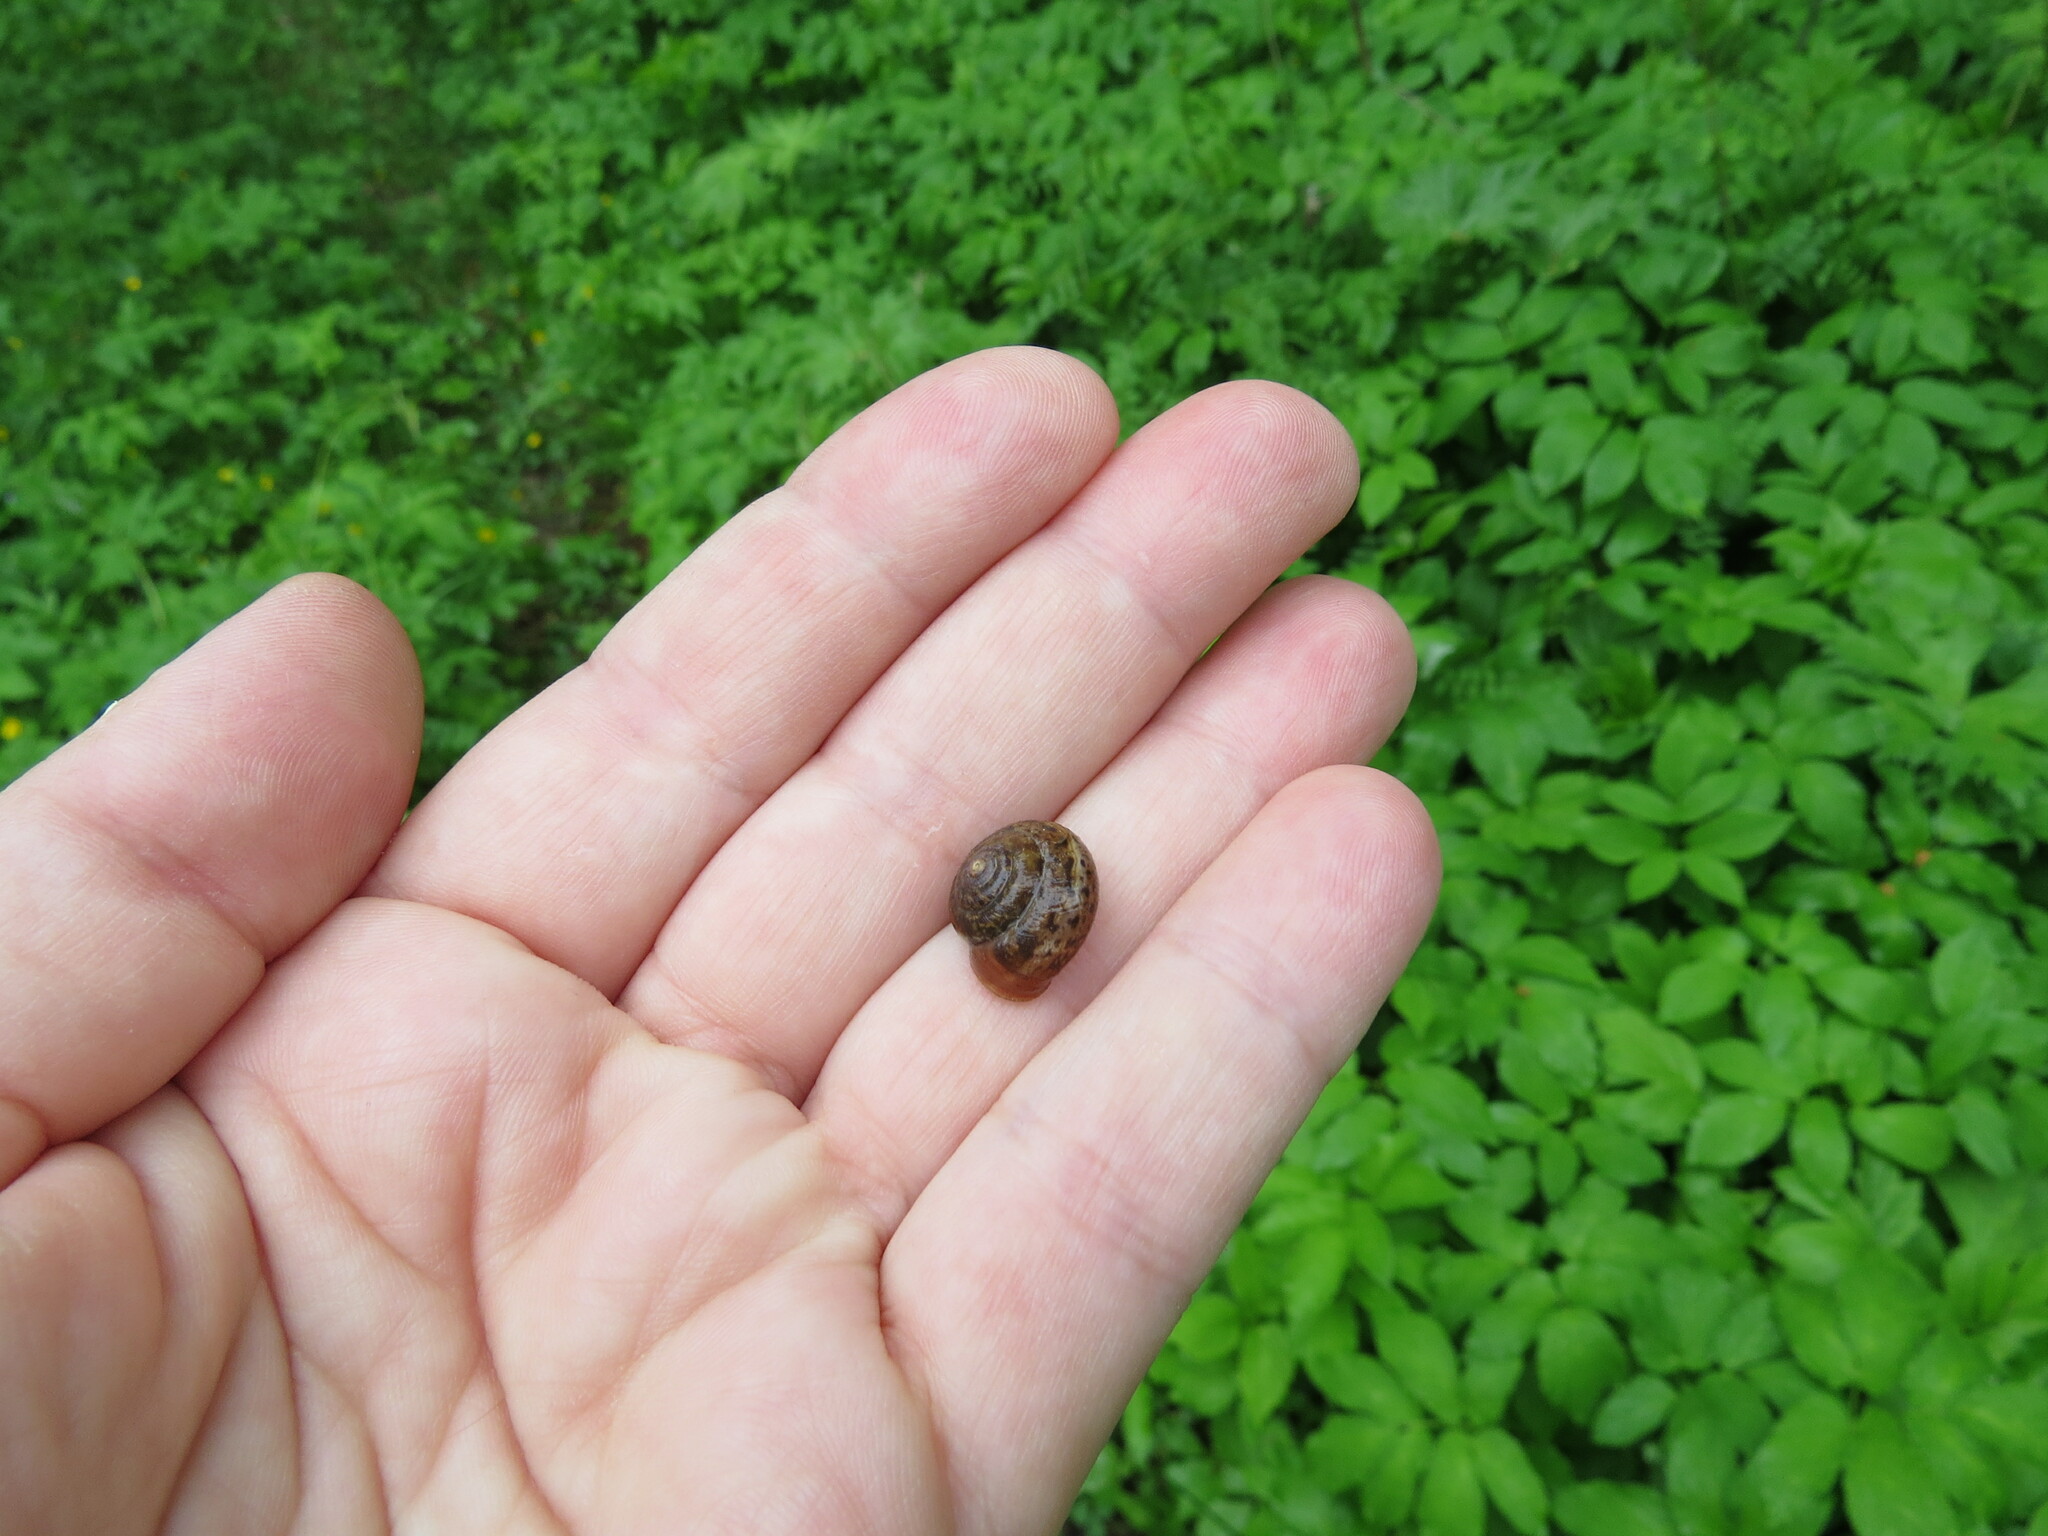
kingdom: Animalia
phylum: Mollusca
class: Gastropoda
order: Stylommatophora
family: Camaenidae
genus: Fruticicola
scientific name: Fruticicola fruticum
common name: Bush snail
